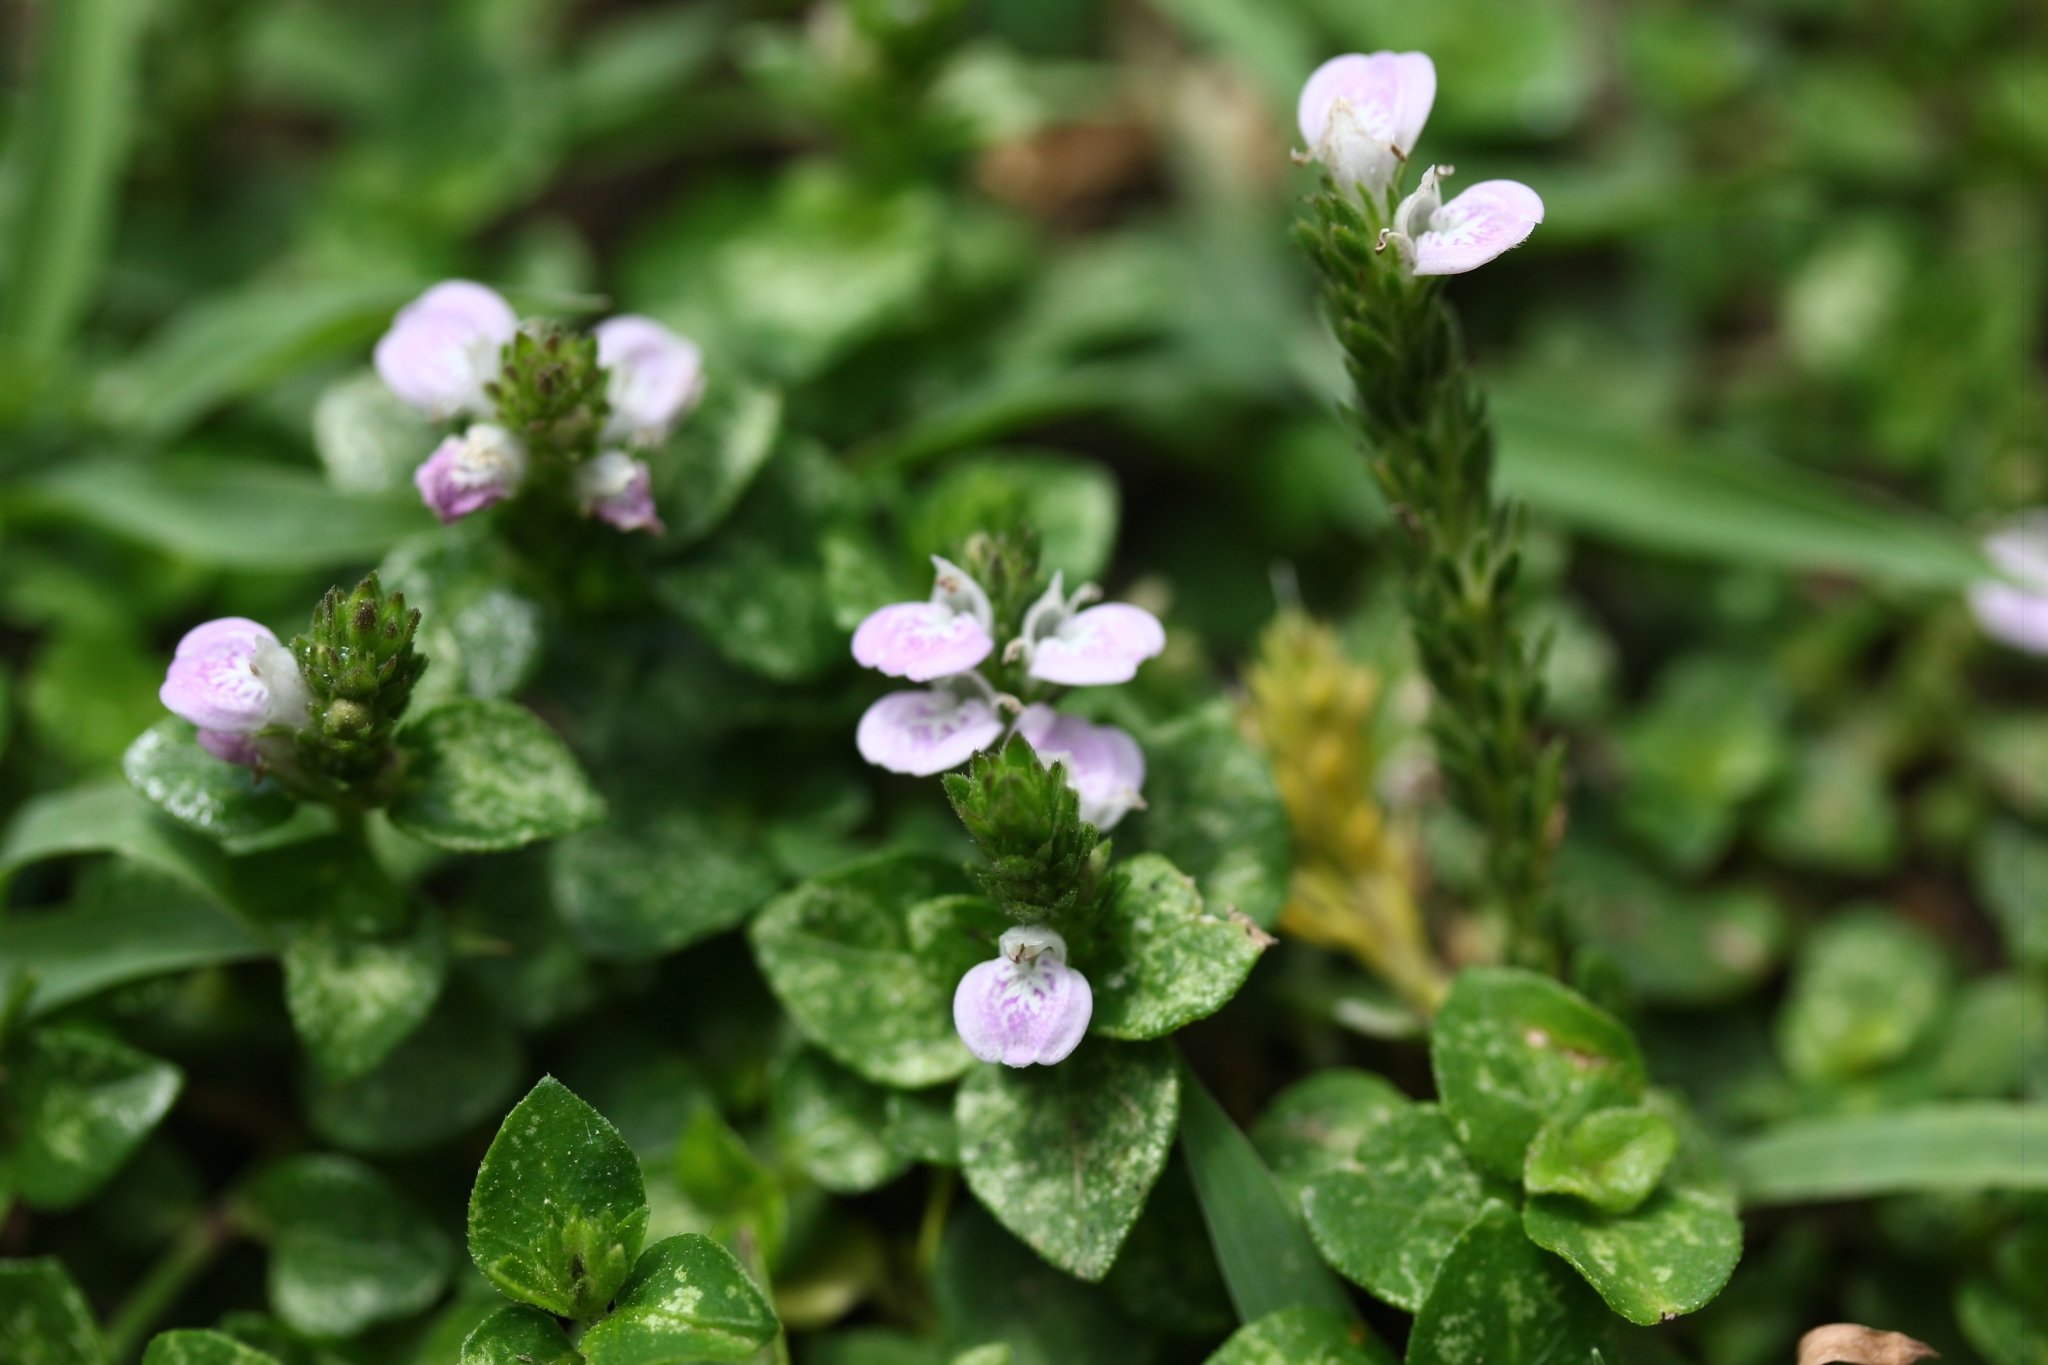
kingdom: Plantae
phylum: Tracheophyta
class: Magnoliopsida
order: Lamiales
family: Acanthaceae
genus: Rostellularia
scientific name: Rostellularia hayatae
